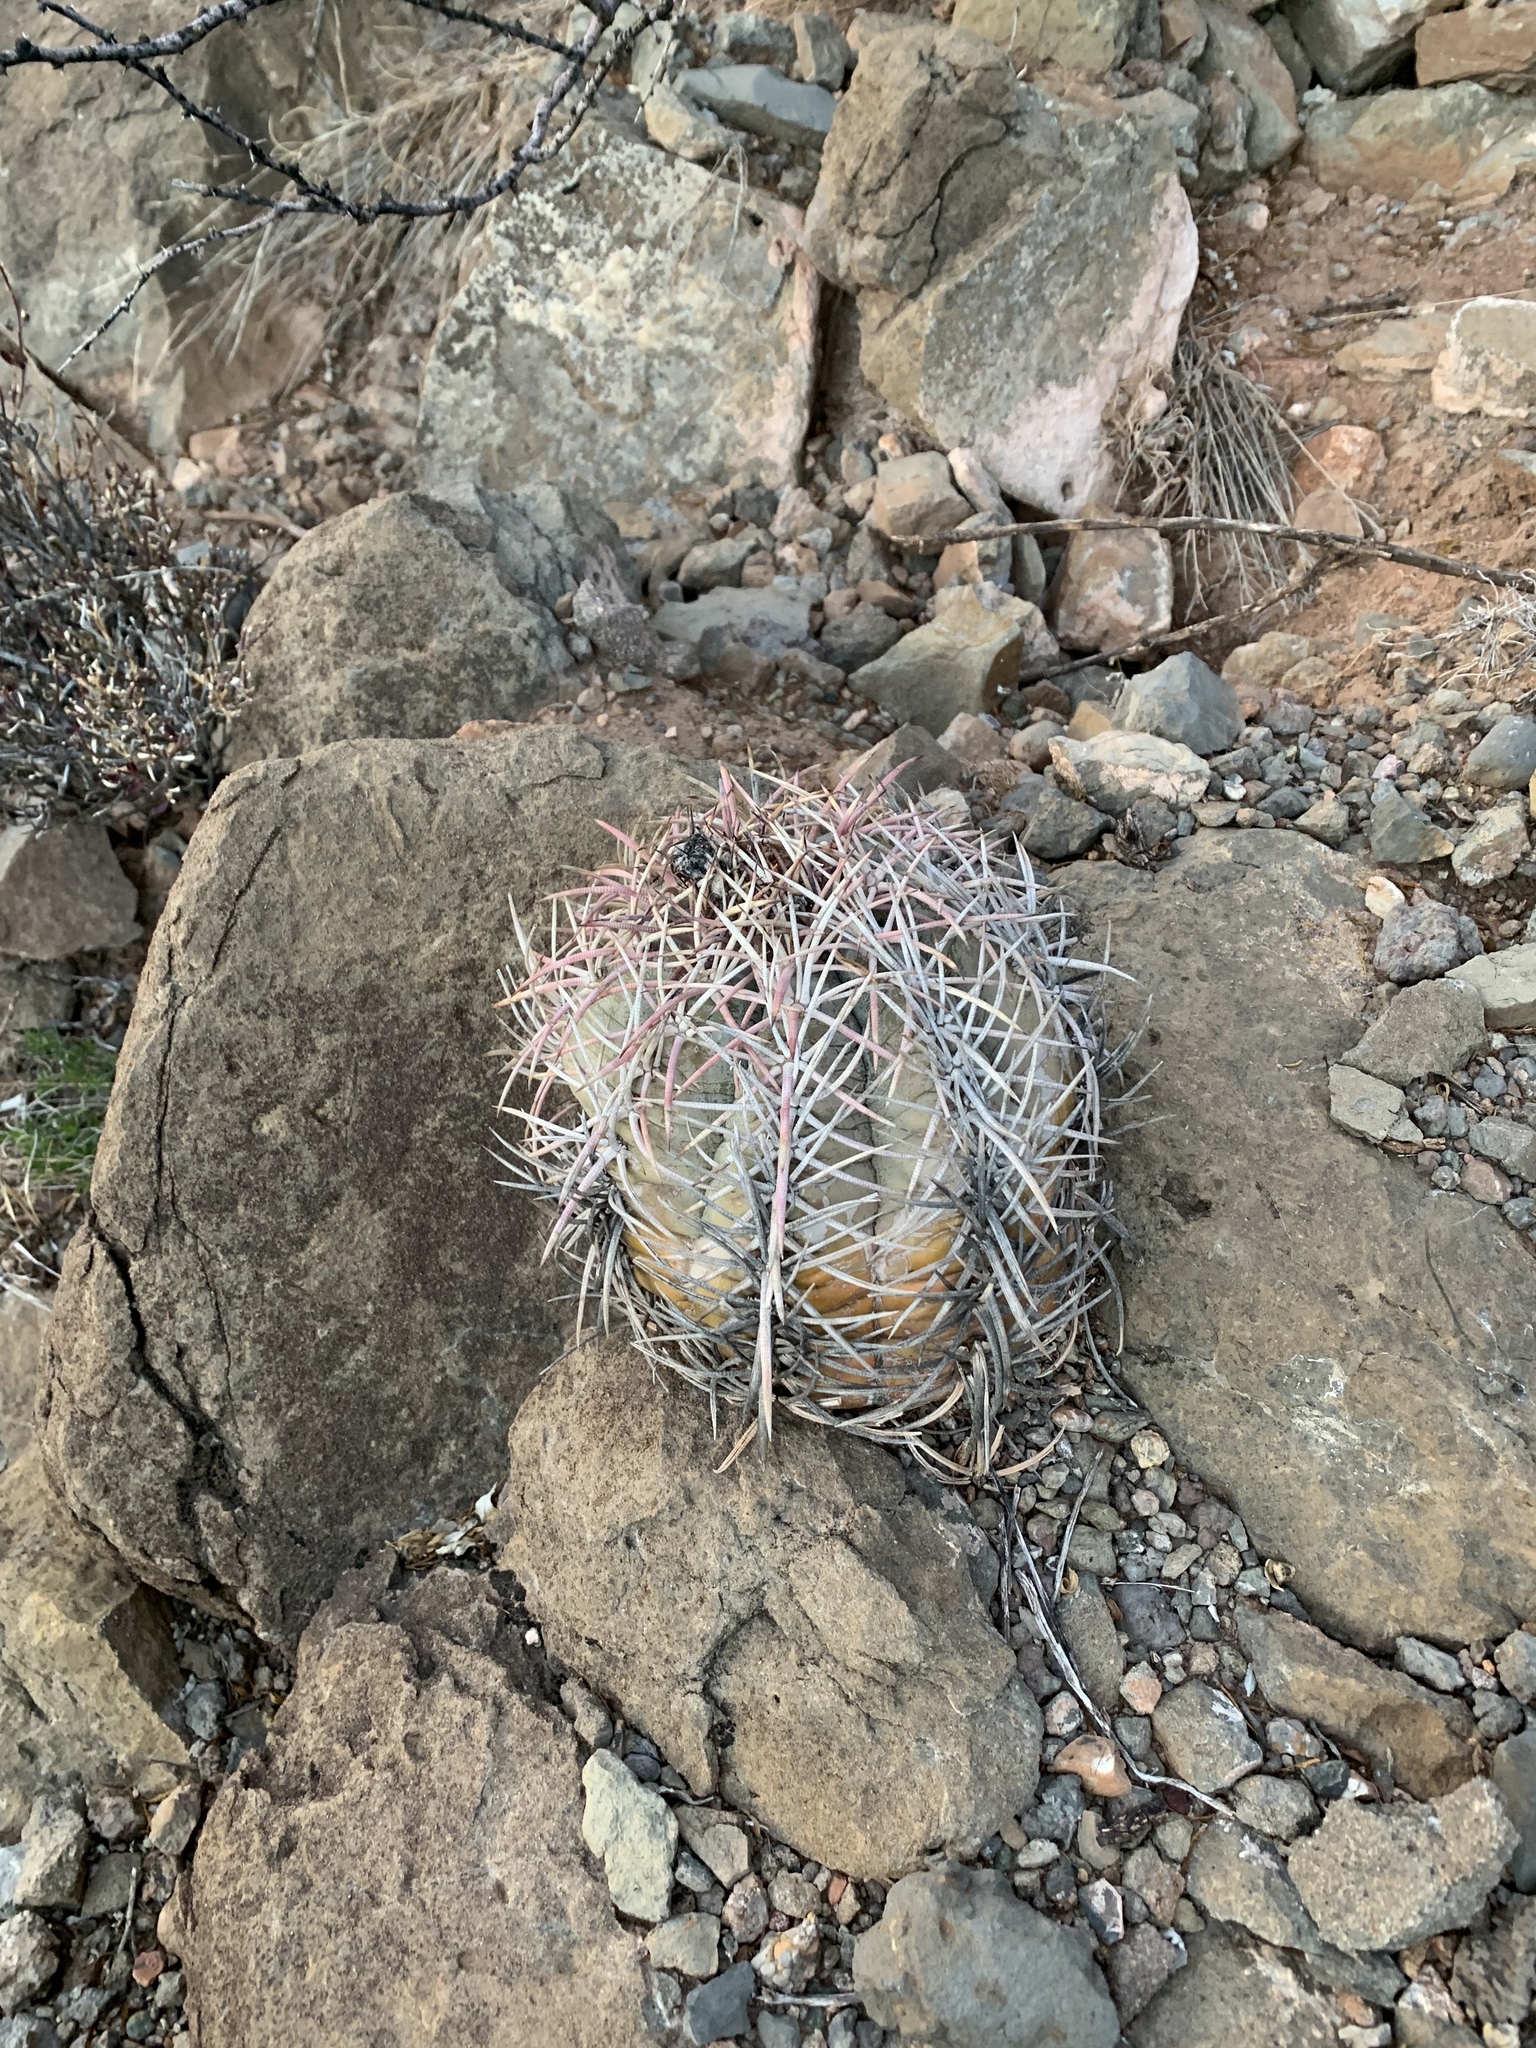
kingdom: Plantae
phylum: Tracheophyta
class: Magnoliopsida
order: Caryophyllales
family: Cactaceae
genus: Echinocactus
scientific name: Echinocactus horizonthalonius
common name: Devilshead
